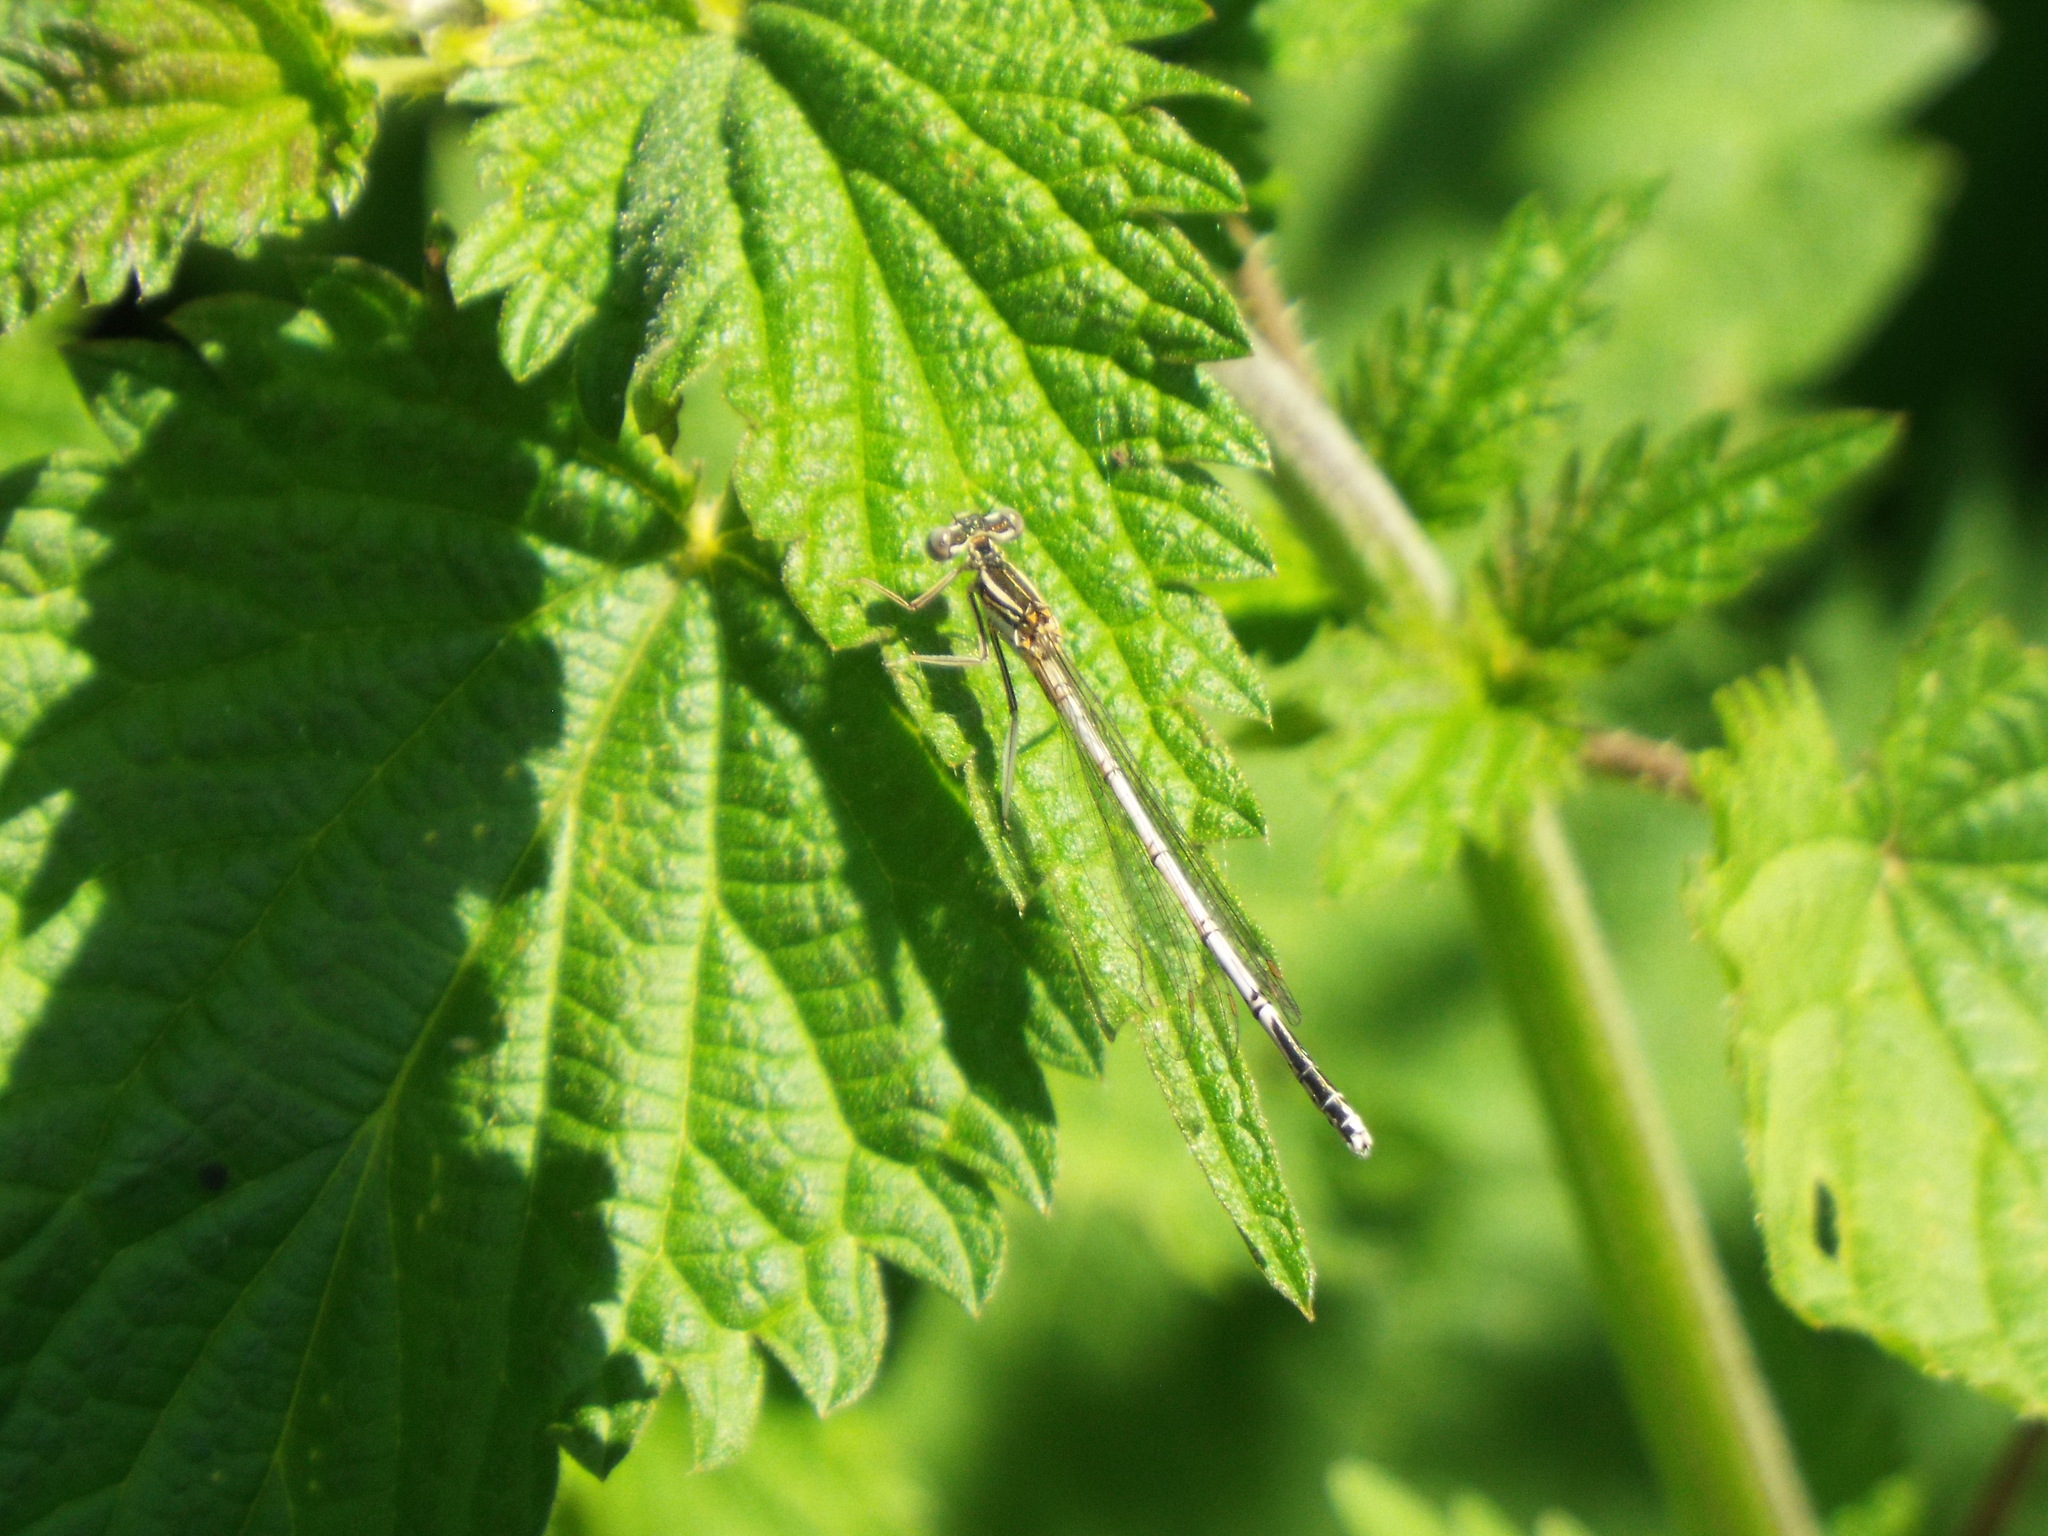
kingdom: Animalia
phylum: Arthropoda
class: Insecta
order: Odonata
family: Platycnemididae
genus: Platycnemis
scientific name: Platycnemis pennipes
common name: White-legged damselfly
